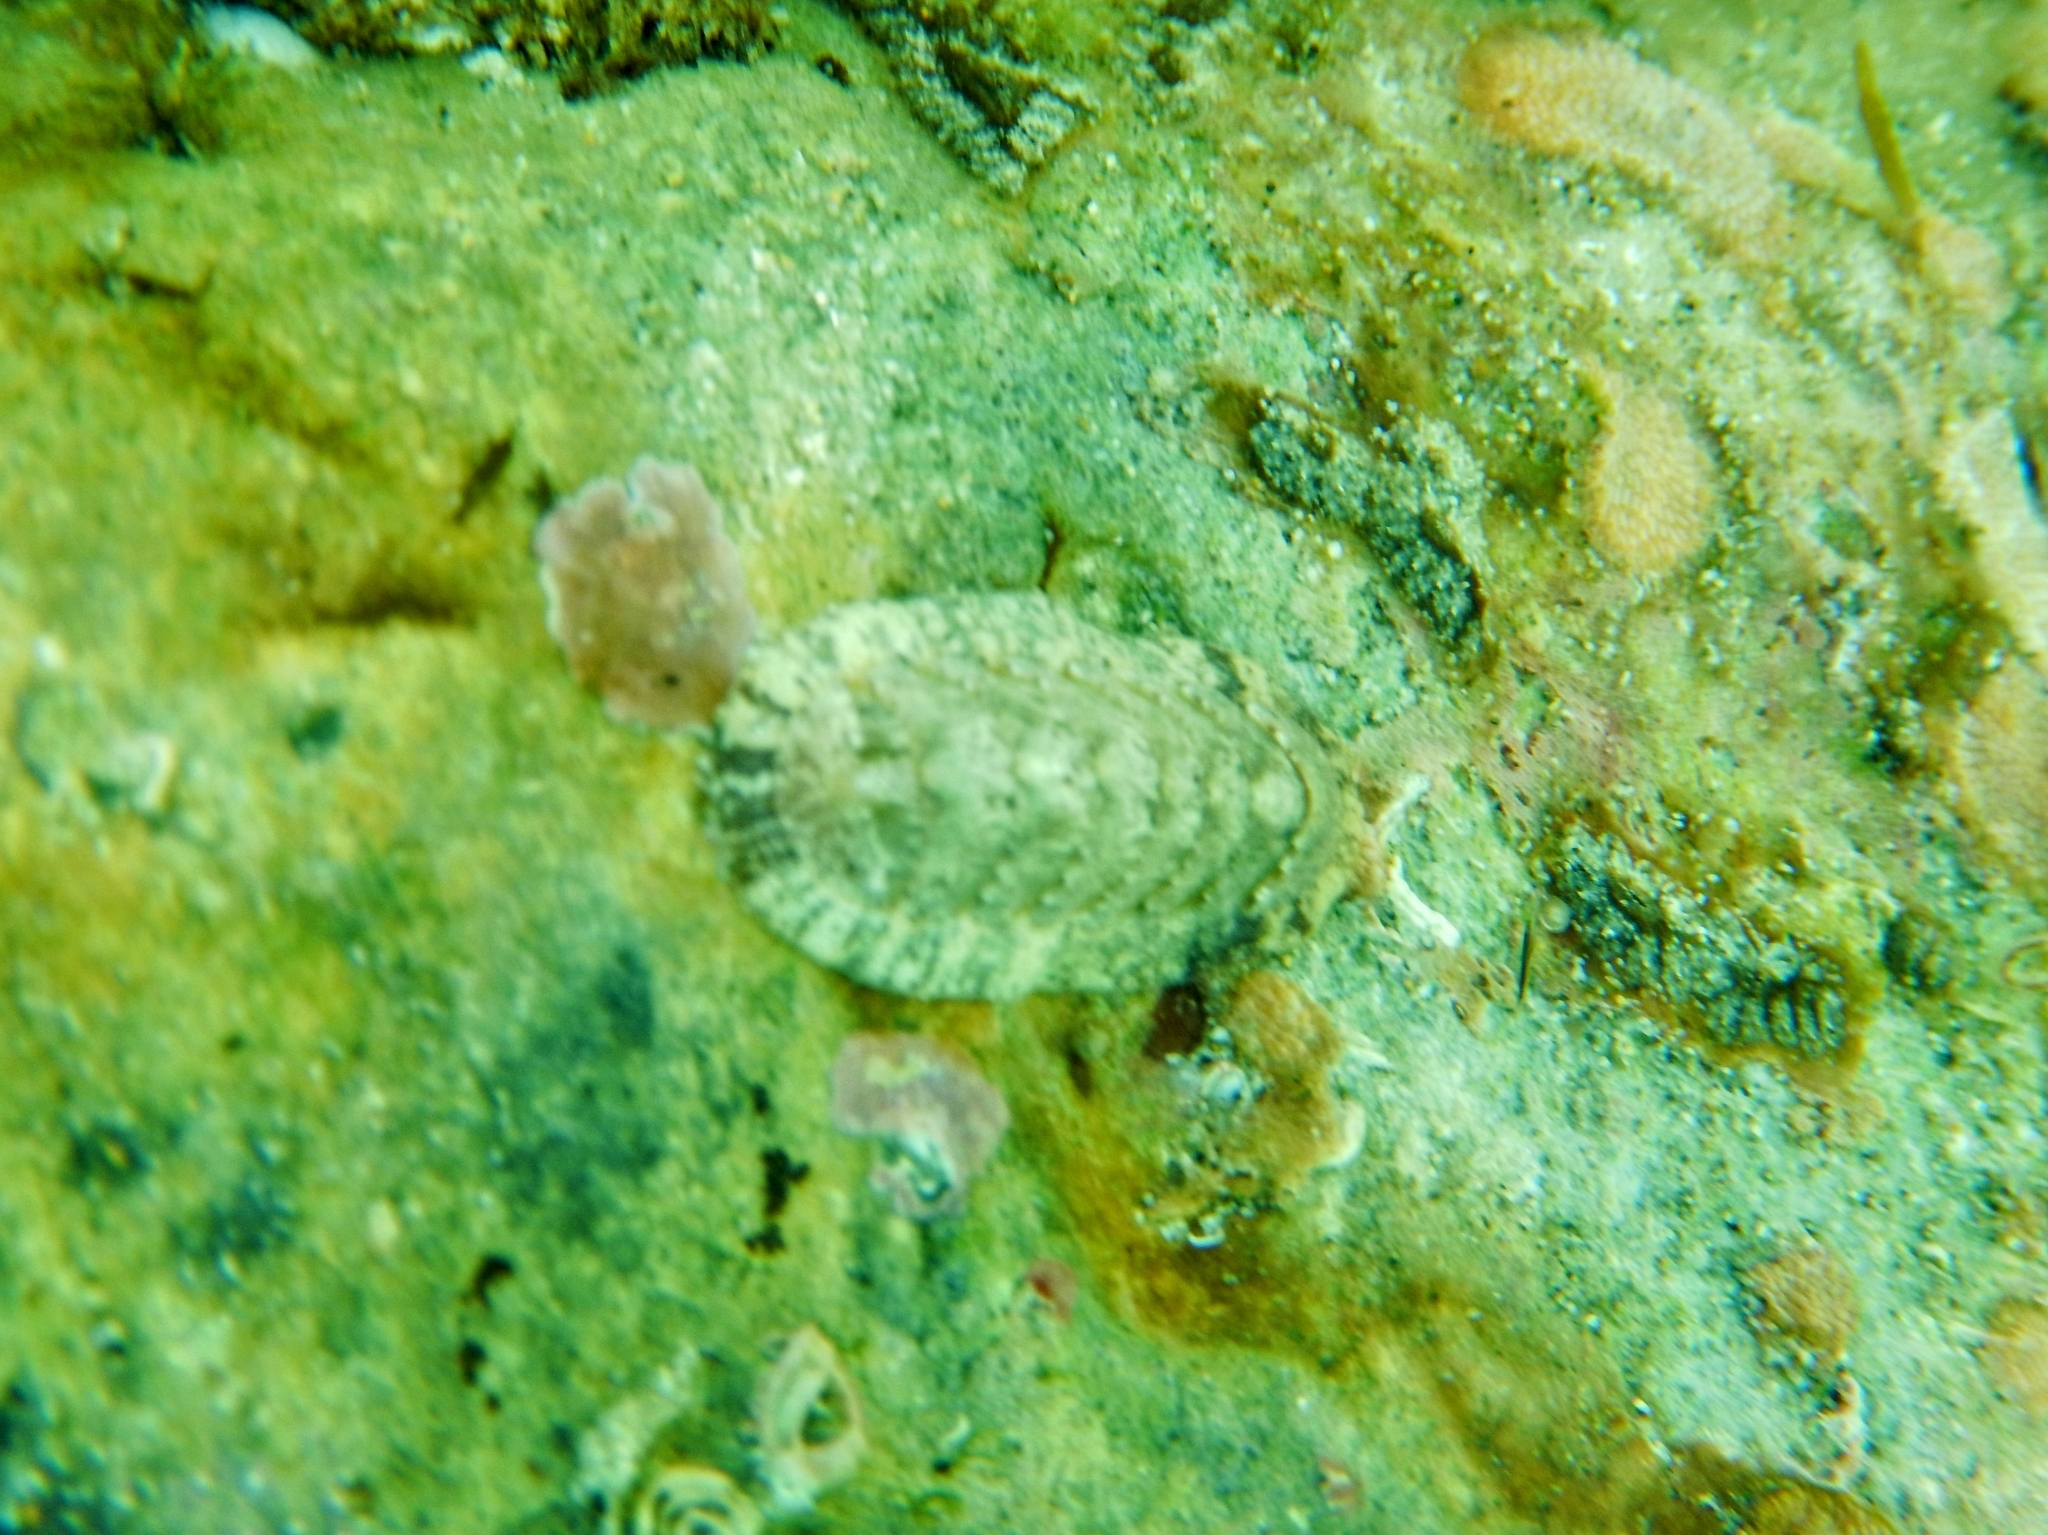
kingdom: Animalia
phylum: Mollusca
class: Polyplacophora
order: Chitonida
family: Chitonidae
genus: Rhyssoplax
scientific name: Rhyssoplax olivacea
